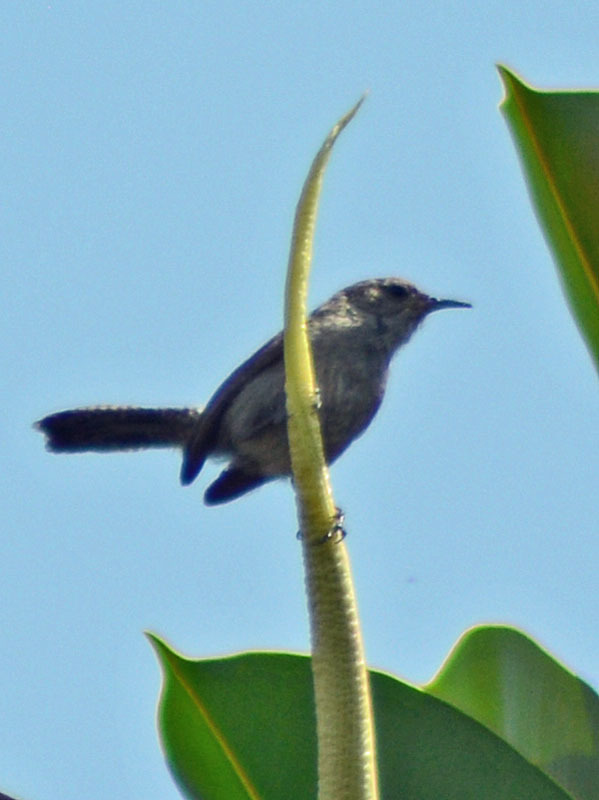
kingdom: Animalia
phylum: Chordata
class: Aves
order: Passeriformes
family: Troglodytidae
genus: Thryomanes
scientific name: Thryomanes bewickii
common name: Bewick's wren
